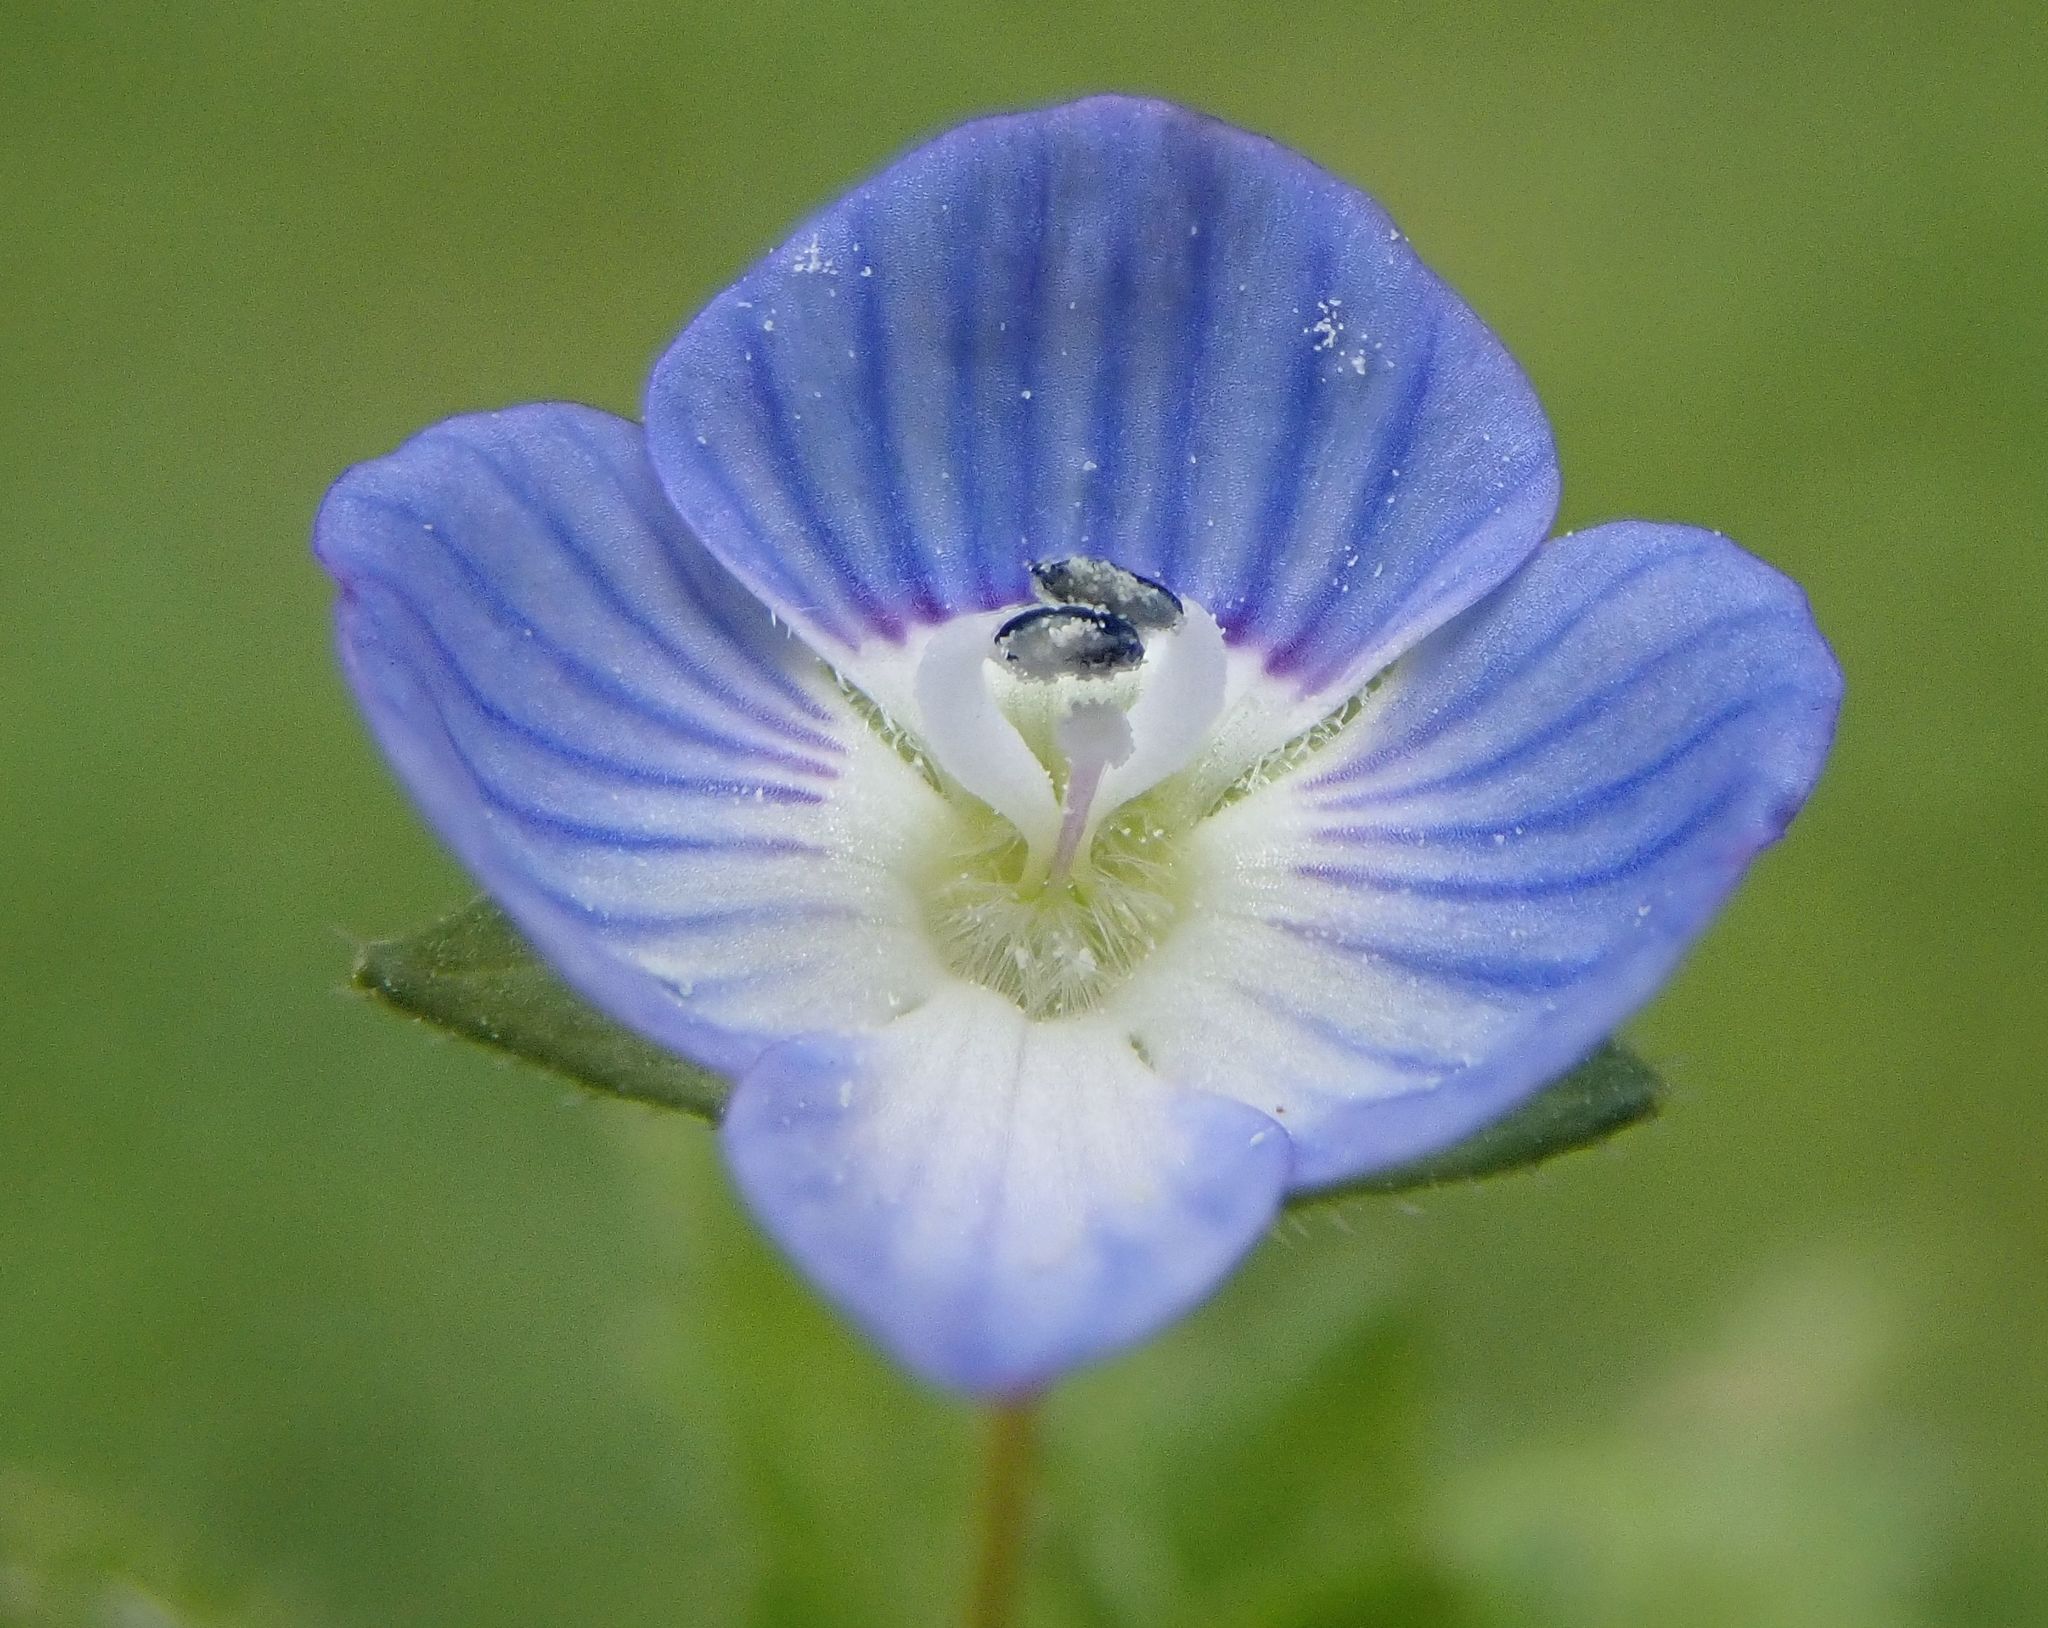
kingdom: Plantae
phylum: Tracheophyta
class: Magnoliopsida
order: Lamiales
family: Plantaginaceae
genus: Veronica
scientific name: Veronica persica
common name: Common field-speedwell
